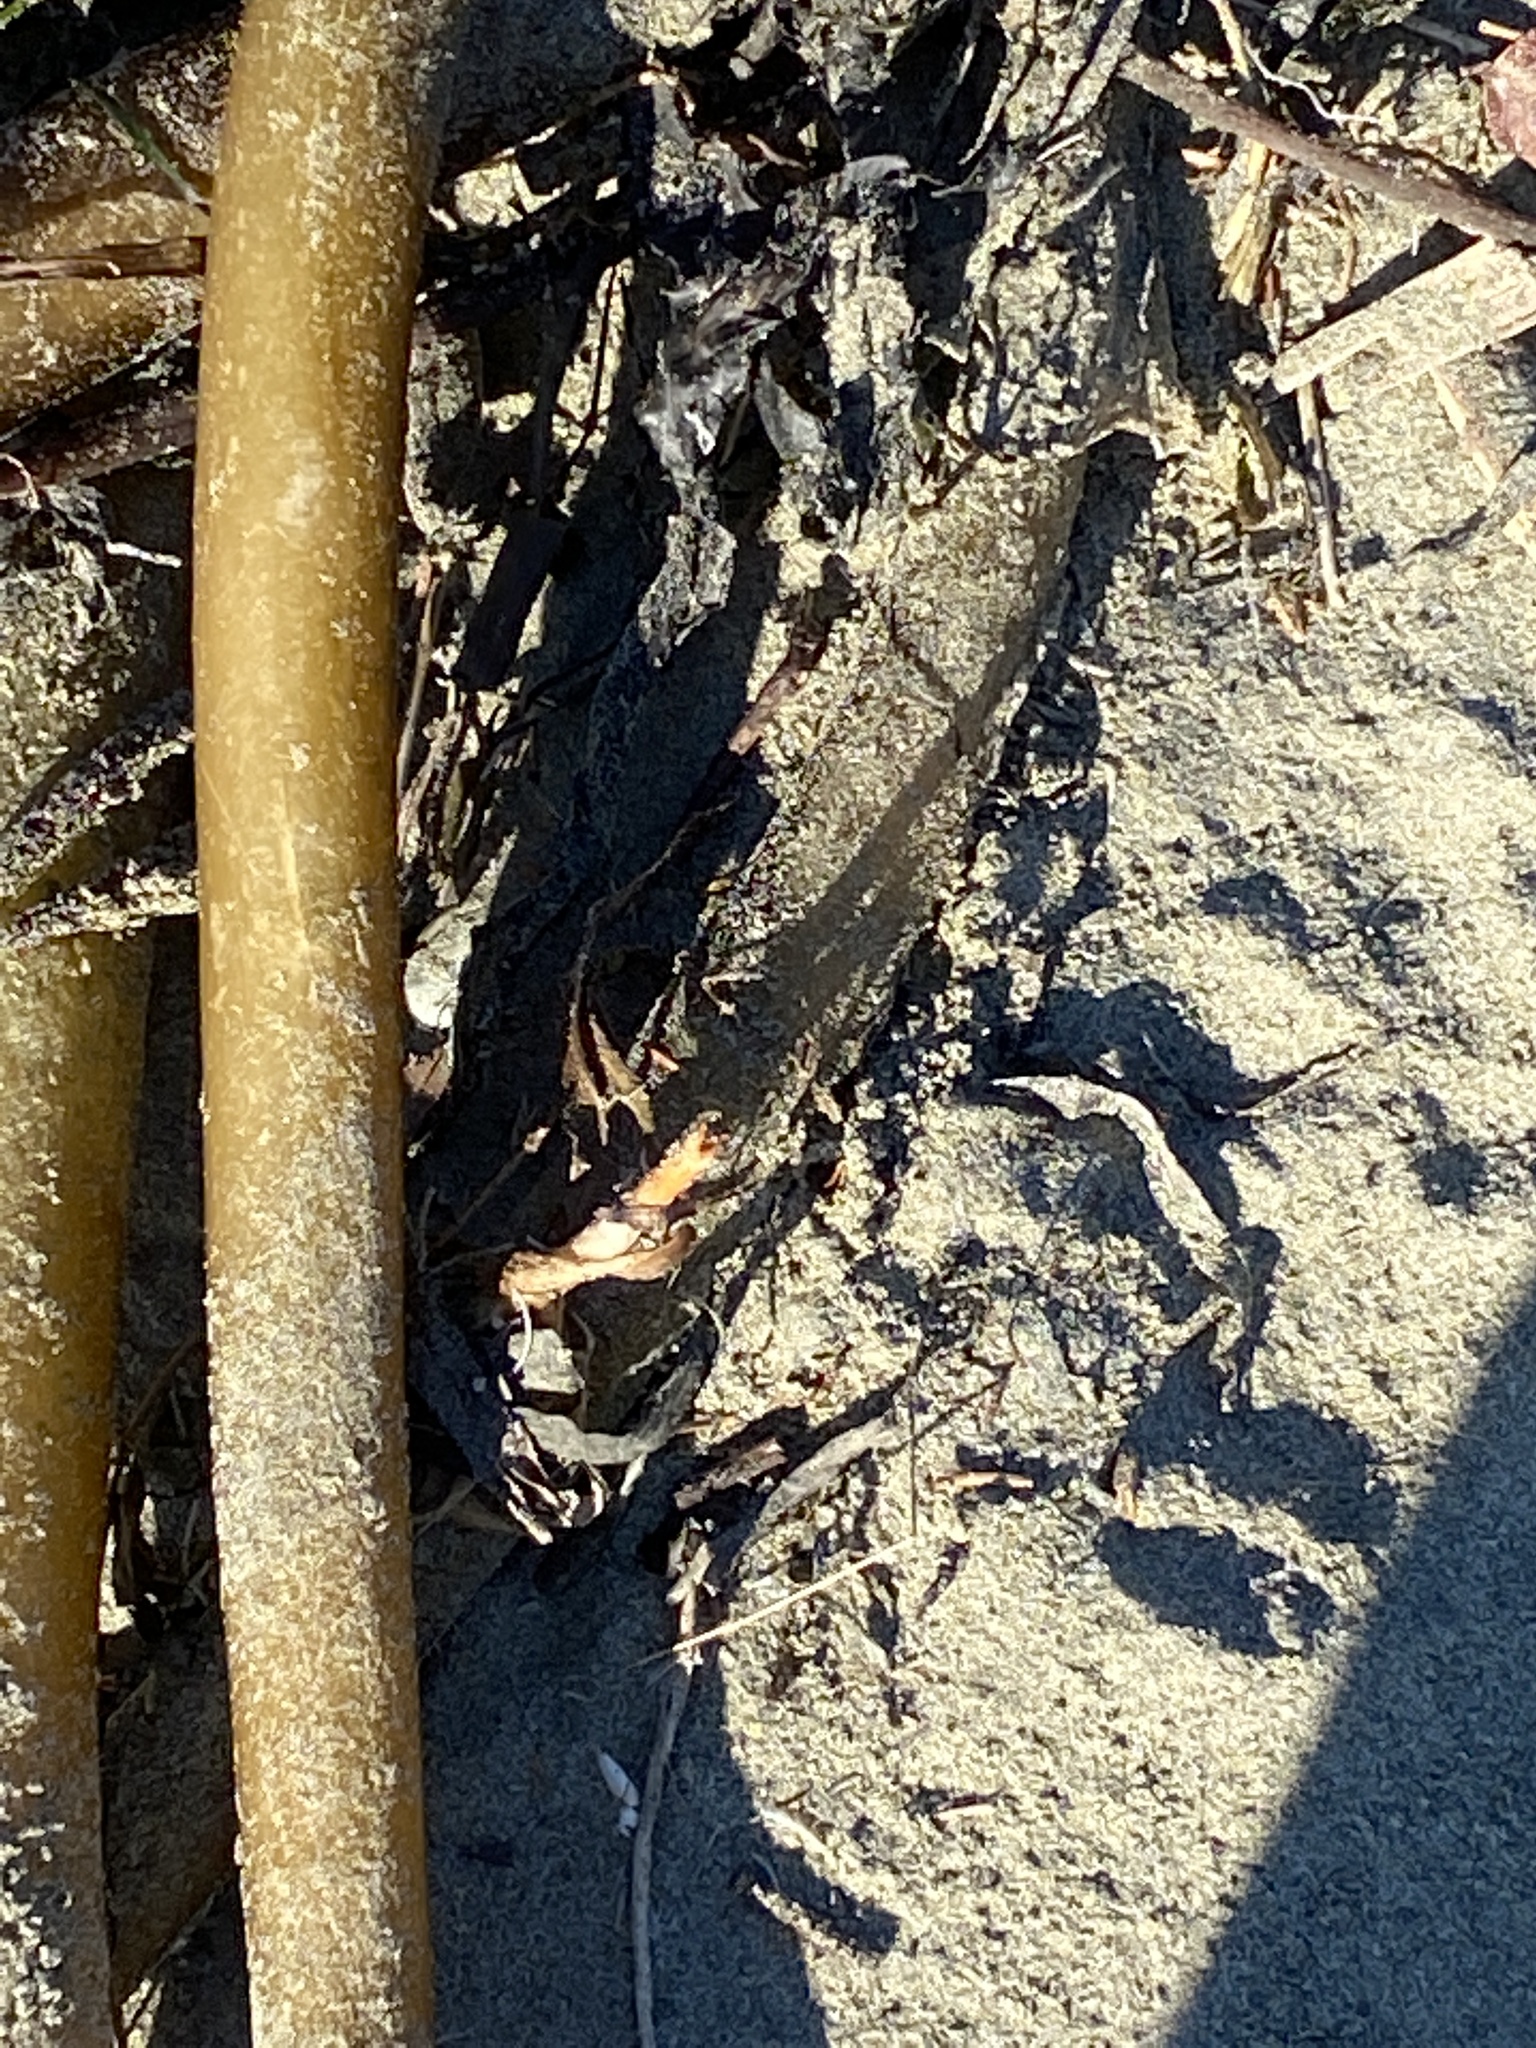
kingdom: Chromista
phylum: Ochrophyta
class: Phaeophyceae
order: Laminariales
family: Laminariaceae
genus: Nereocystis
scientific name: Nereocystis luetkeana
